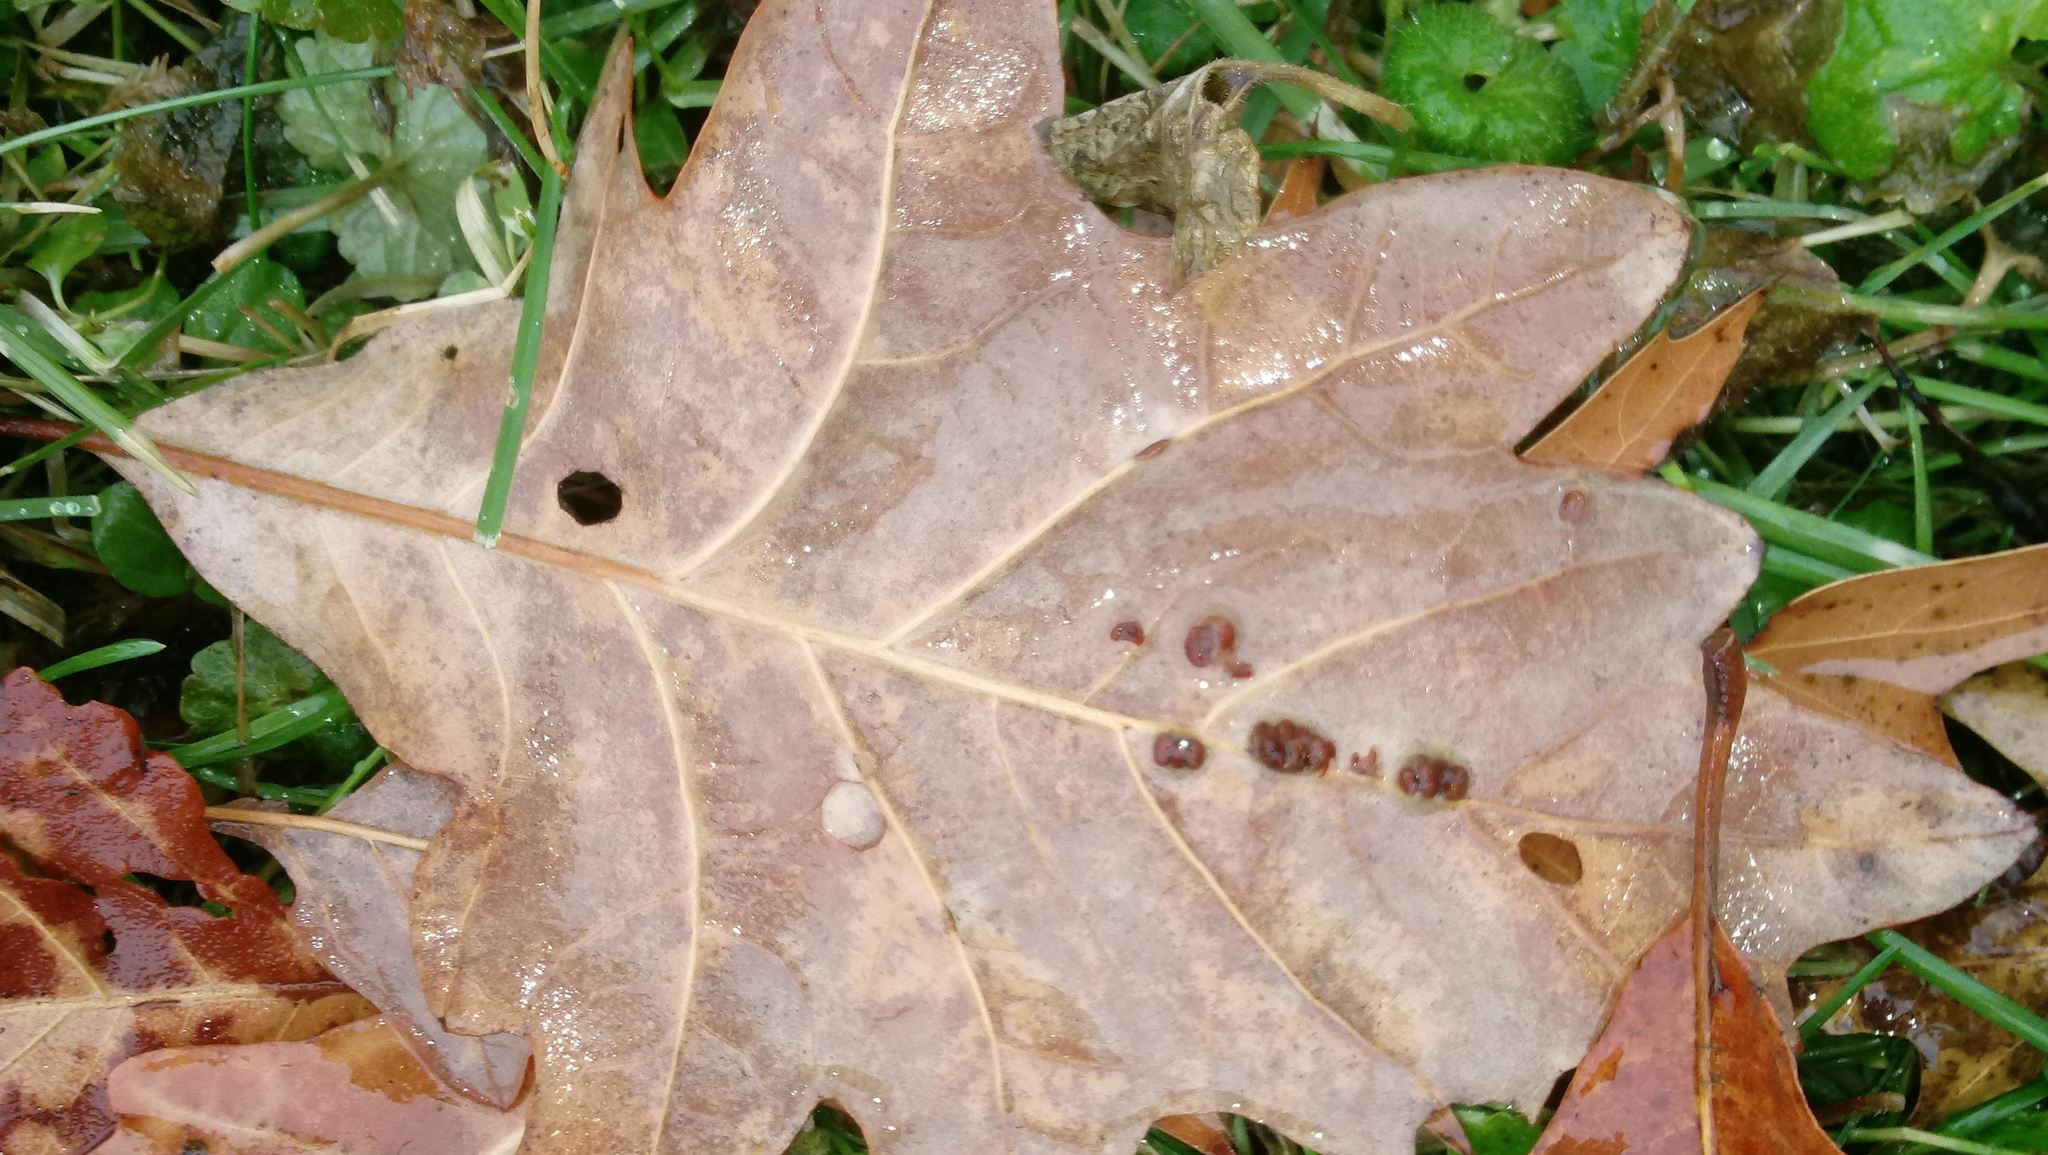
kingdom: Animalia
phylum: Arthropoda
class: Insecta
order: Hymenoptera
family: Cynipidae
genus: Andricus
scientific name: Andricus Druon ignotum
